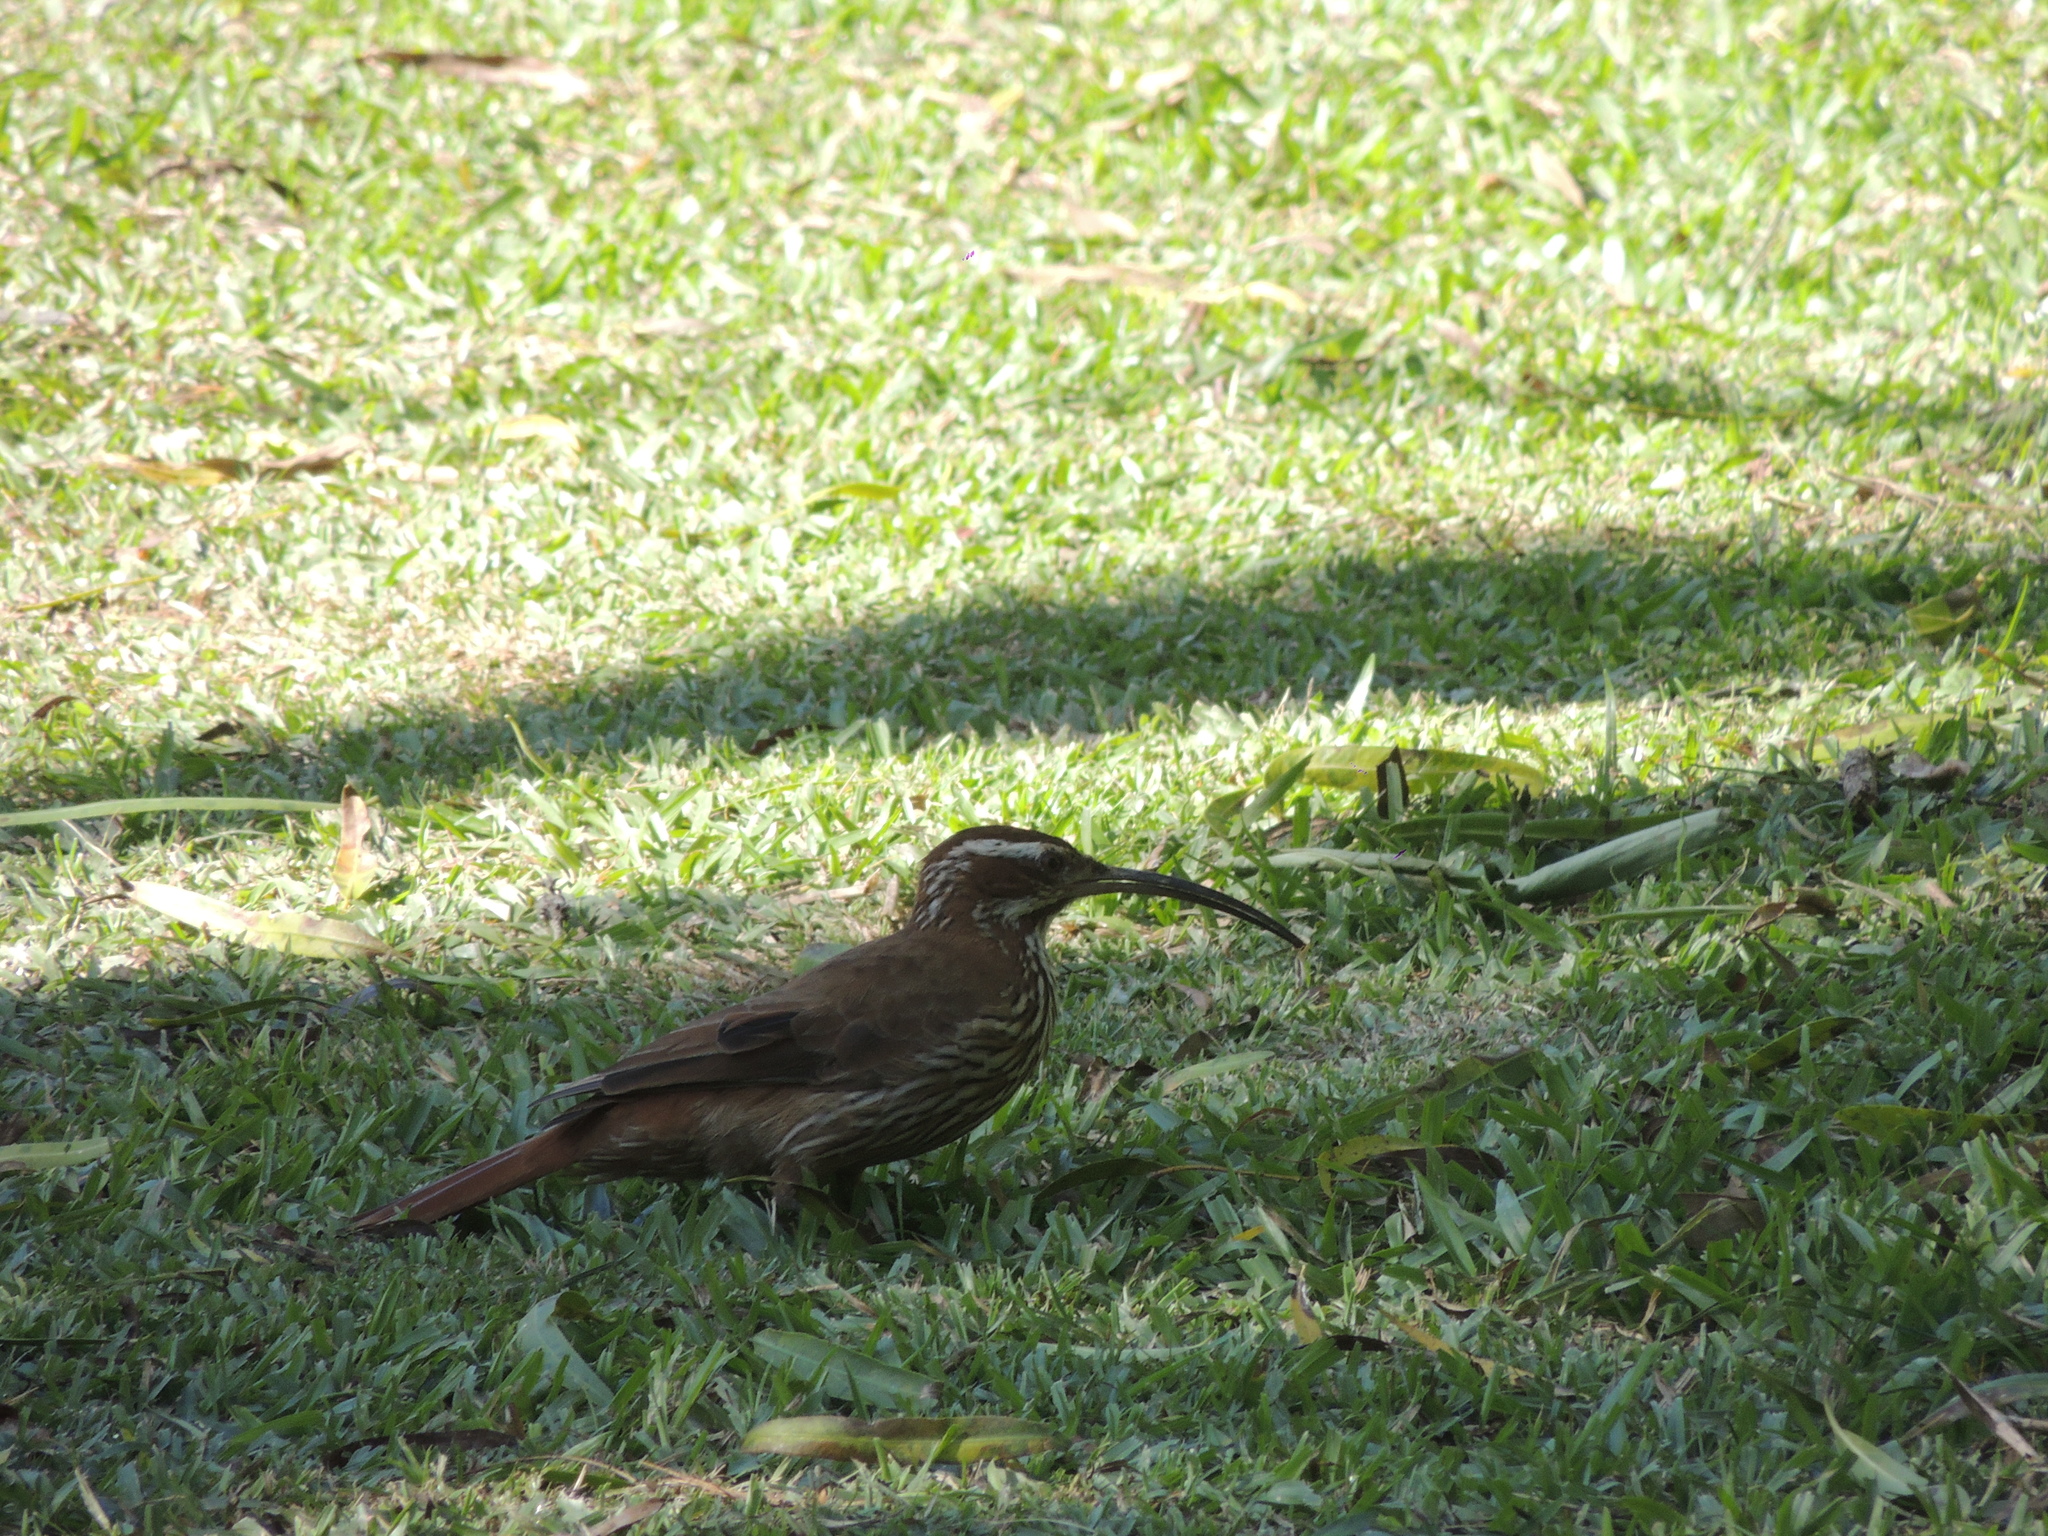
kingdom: Animalia
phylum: Chordata
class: Aves
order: Passeriformes
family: Furnariidae
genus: Drymornis
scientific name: Drymornis bridgesii
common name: Scimitar-billed woodcreeper
